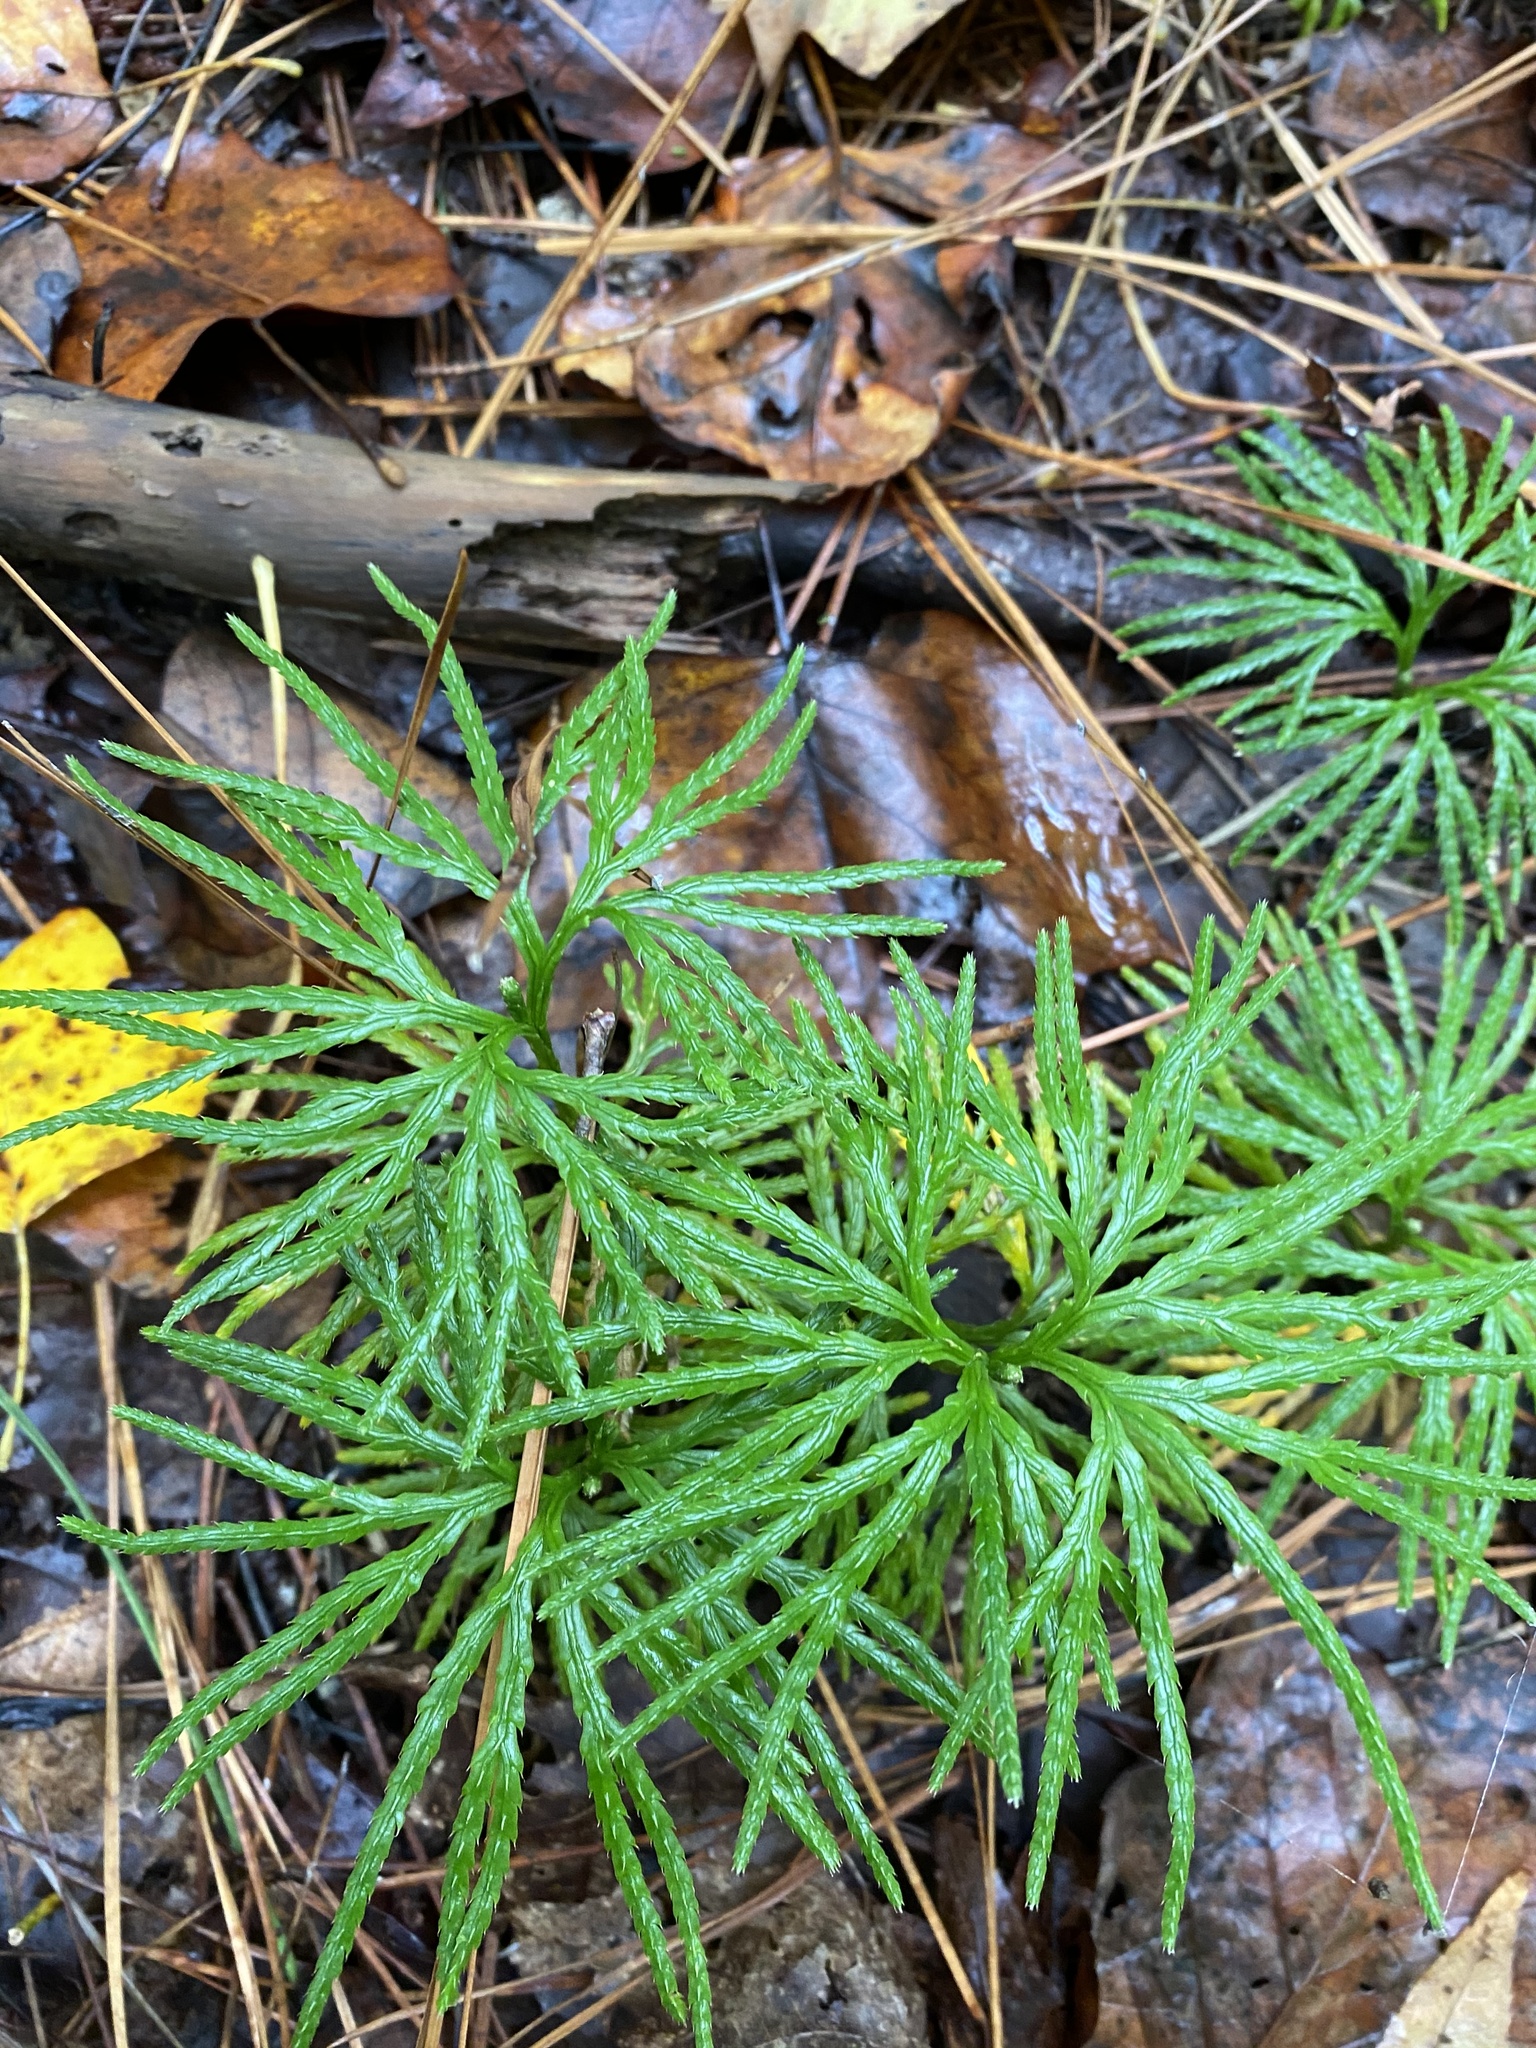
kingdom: Plantae
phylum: Tracheophyta
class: Lycopodiopsida
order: Lycopodiales
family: Lycopodiaceae
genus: Diphasiastrum
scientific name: Diphasiastrum digitatum
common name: Southern running-pine
